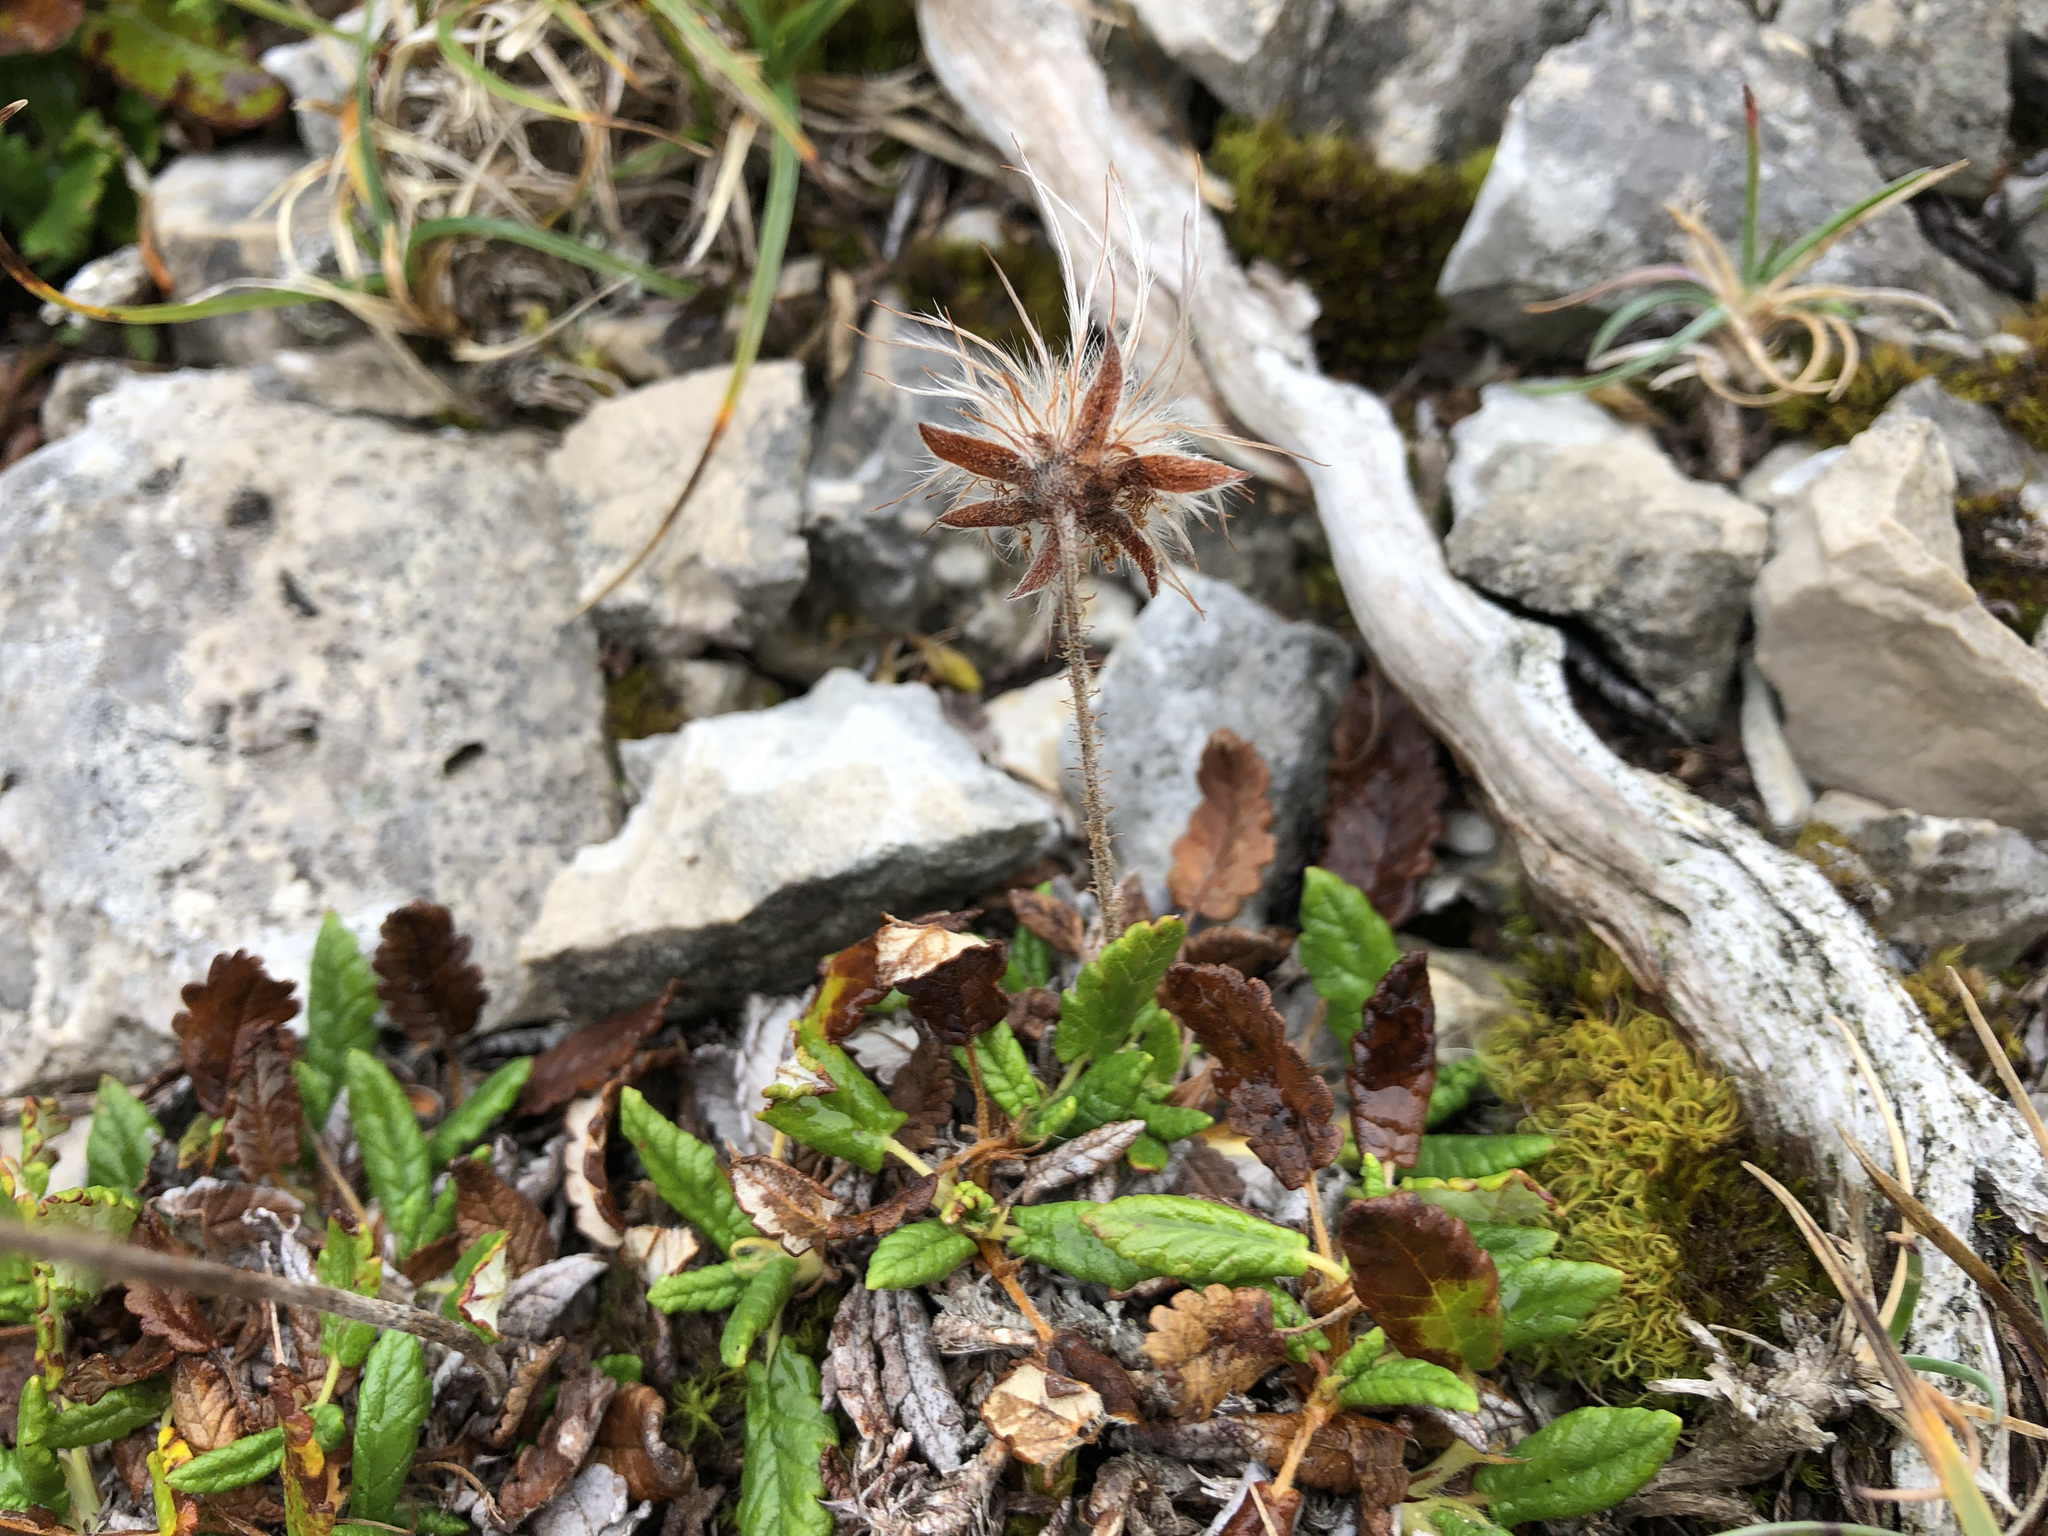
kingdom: Plantae
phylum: Tracheophyta
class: Magnoliopsida
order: Rosales
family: Rosaceae
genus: Dryas
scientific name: Dryas octopetala
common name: Eight-petal mountain-avens
